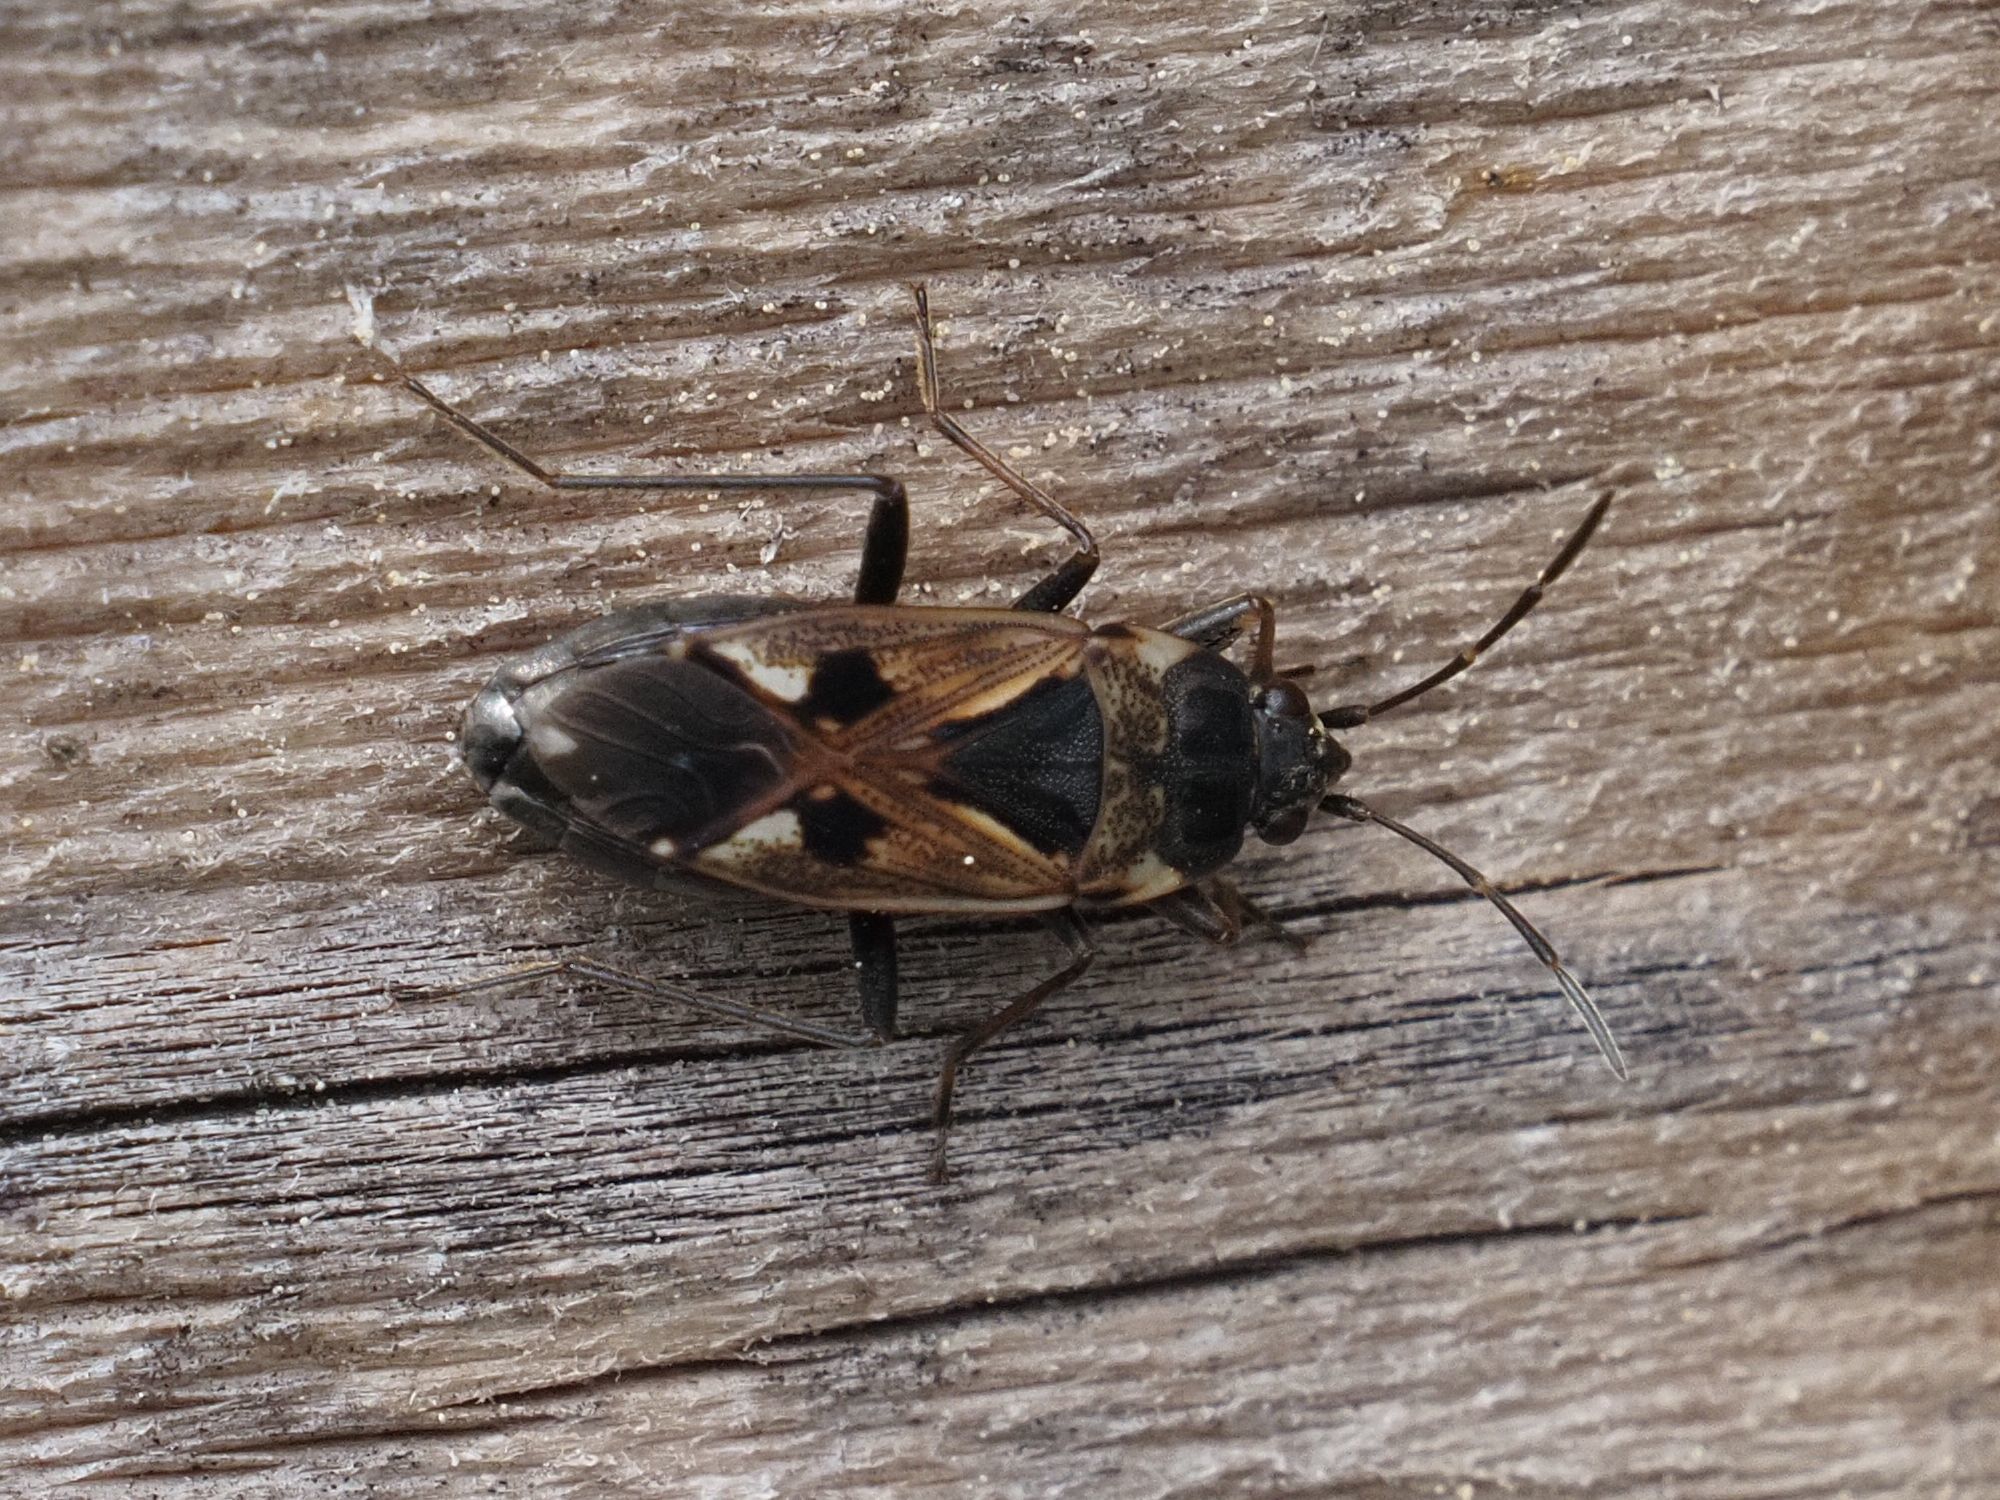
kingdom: Animalia
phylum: Arthropoda
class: Insecta
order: Hemiptera
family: Rhyparochromidae
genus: Rhyparochromus
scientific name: Rhyparochromus vulgaris
